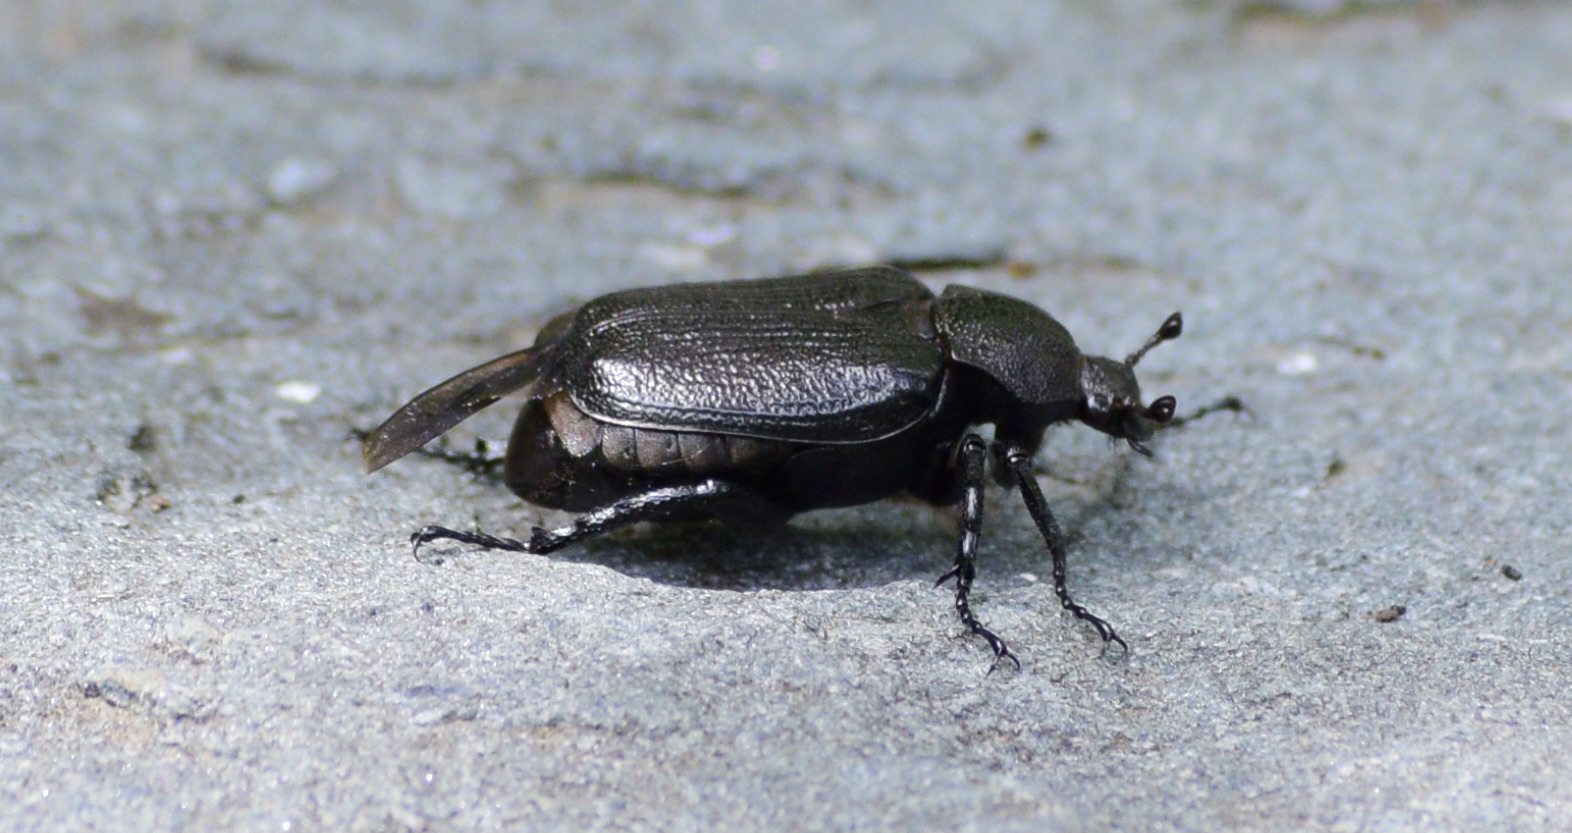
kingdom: Animalia
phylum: Arthropoda
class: Insecta
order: Coleoptera
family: Scarabaeidae
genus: Osmoderma
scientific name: Osmoderma scabra
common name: Rough hermit beetle
